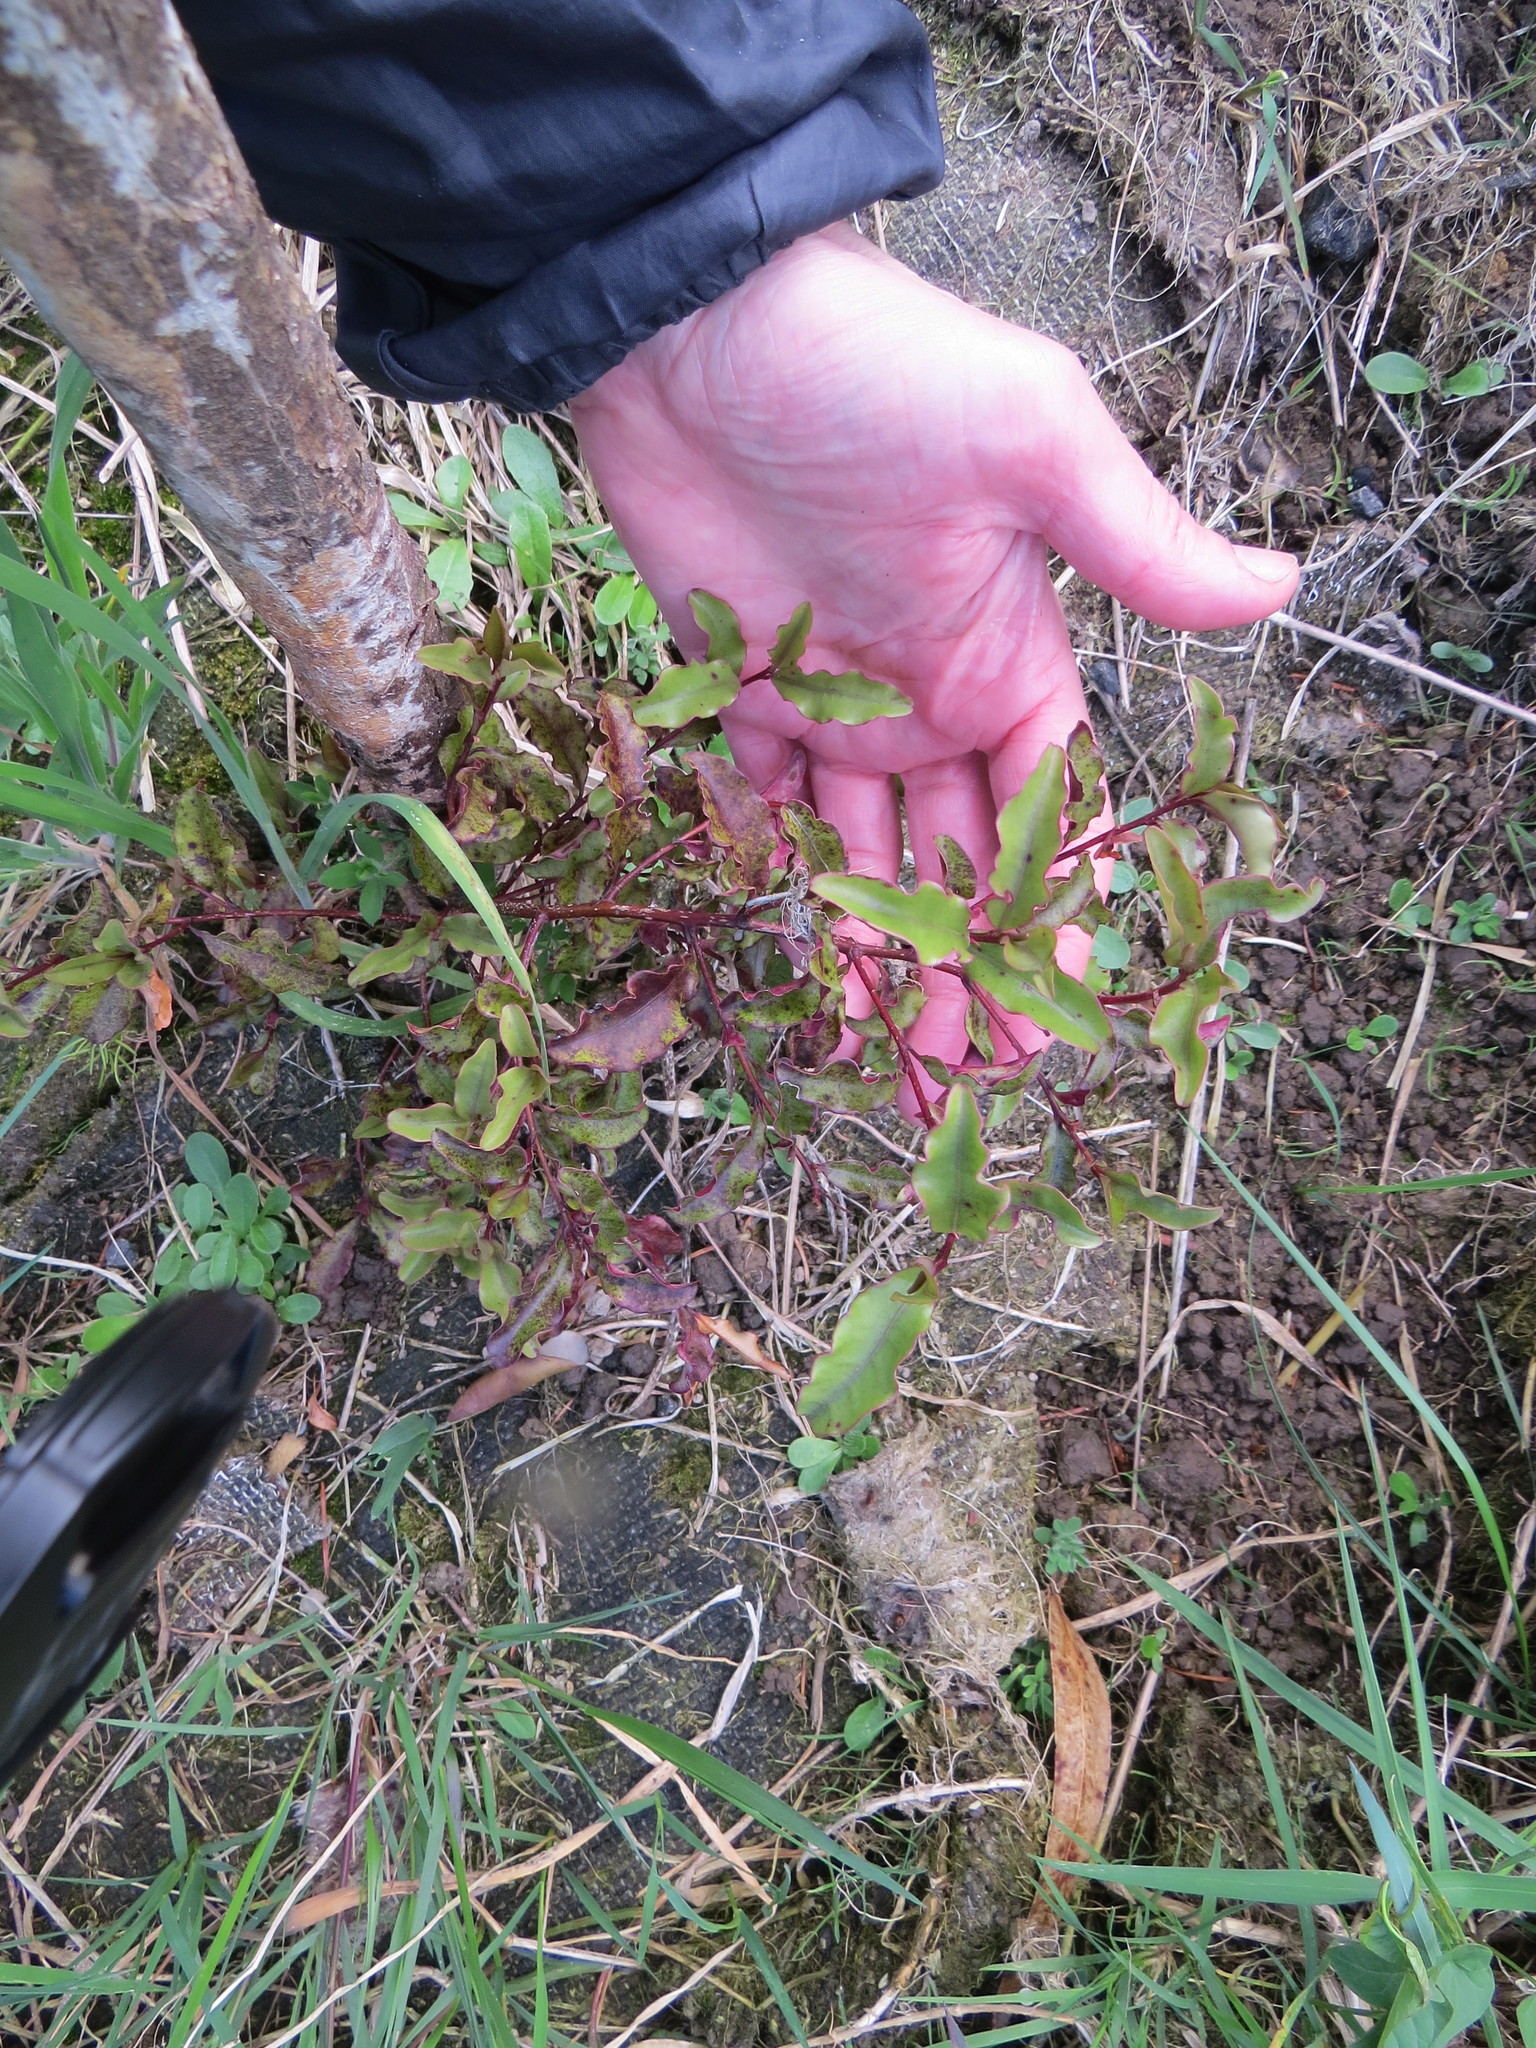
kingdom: Plantae
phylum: Tracheophyta
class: Magnoliopsida
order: Ericales
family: Primulaceae
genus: Myrsine
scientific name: Myrsine australis
